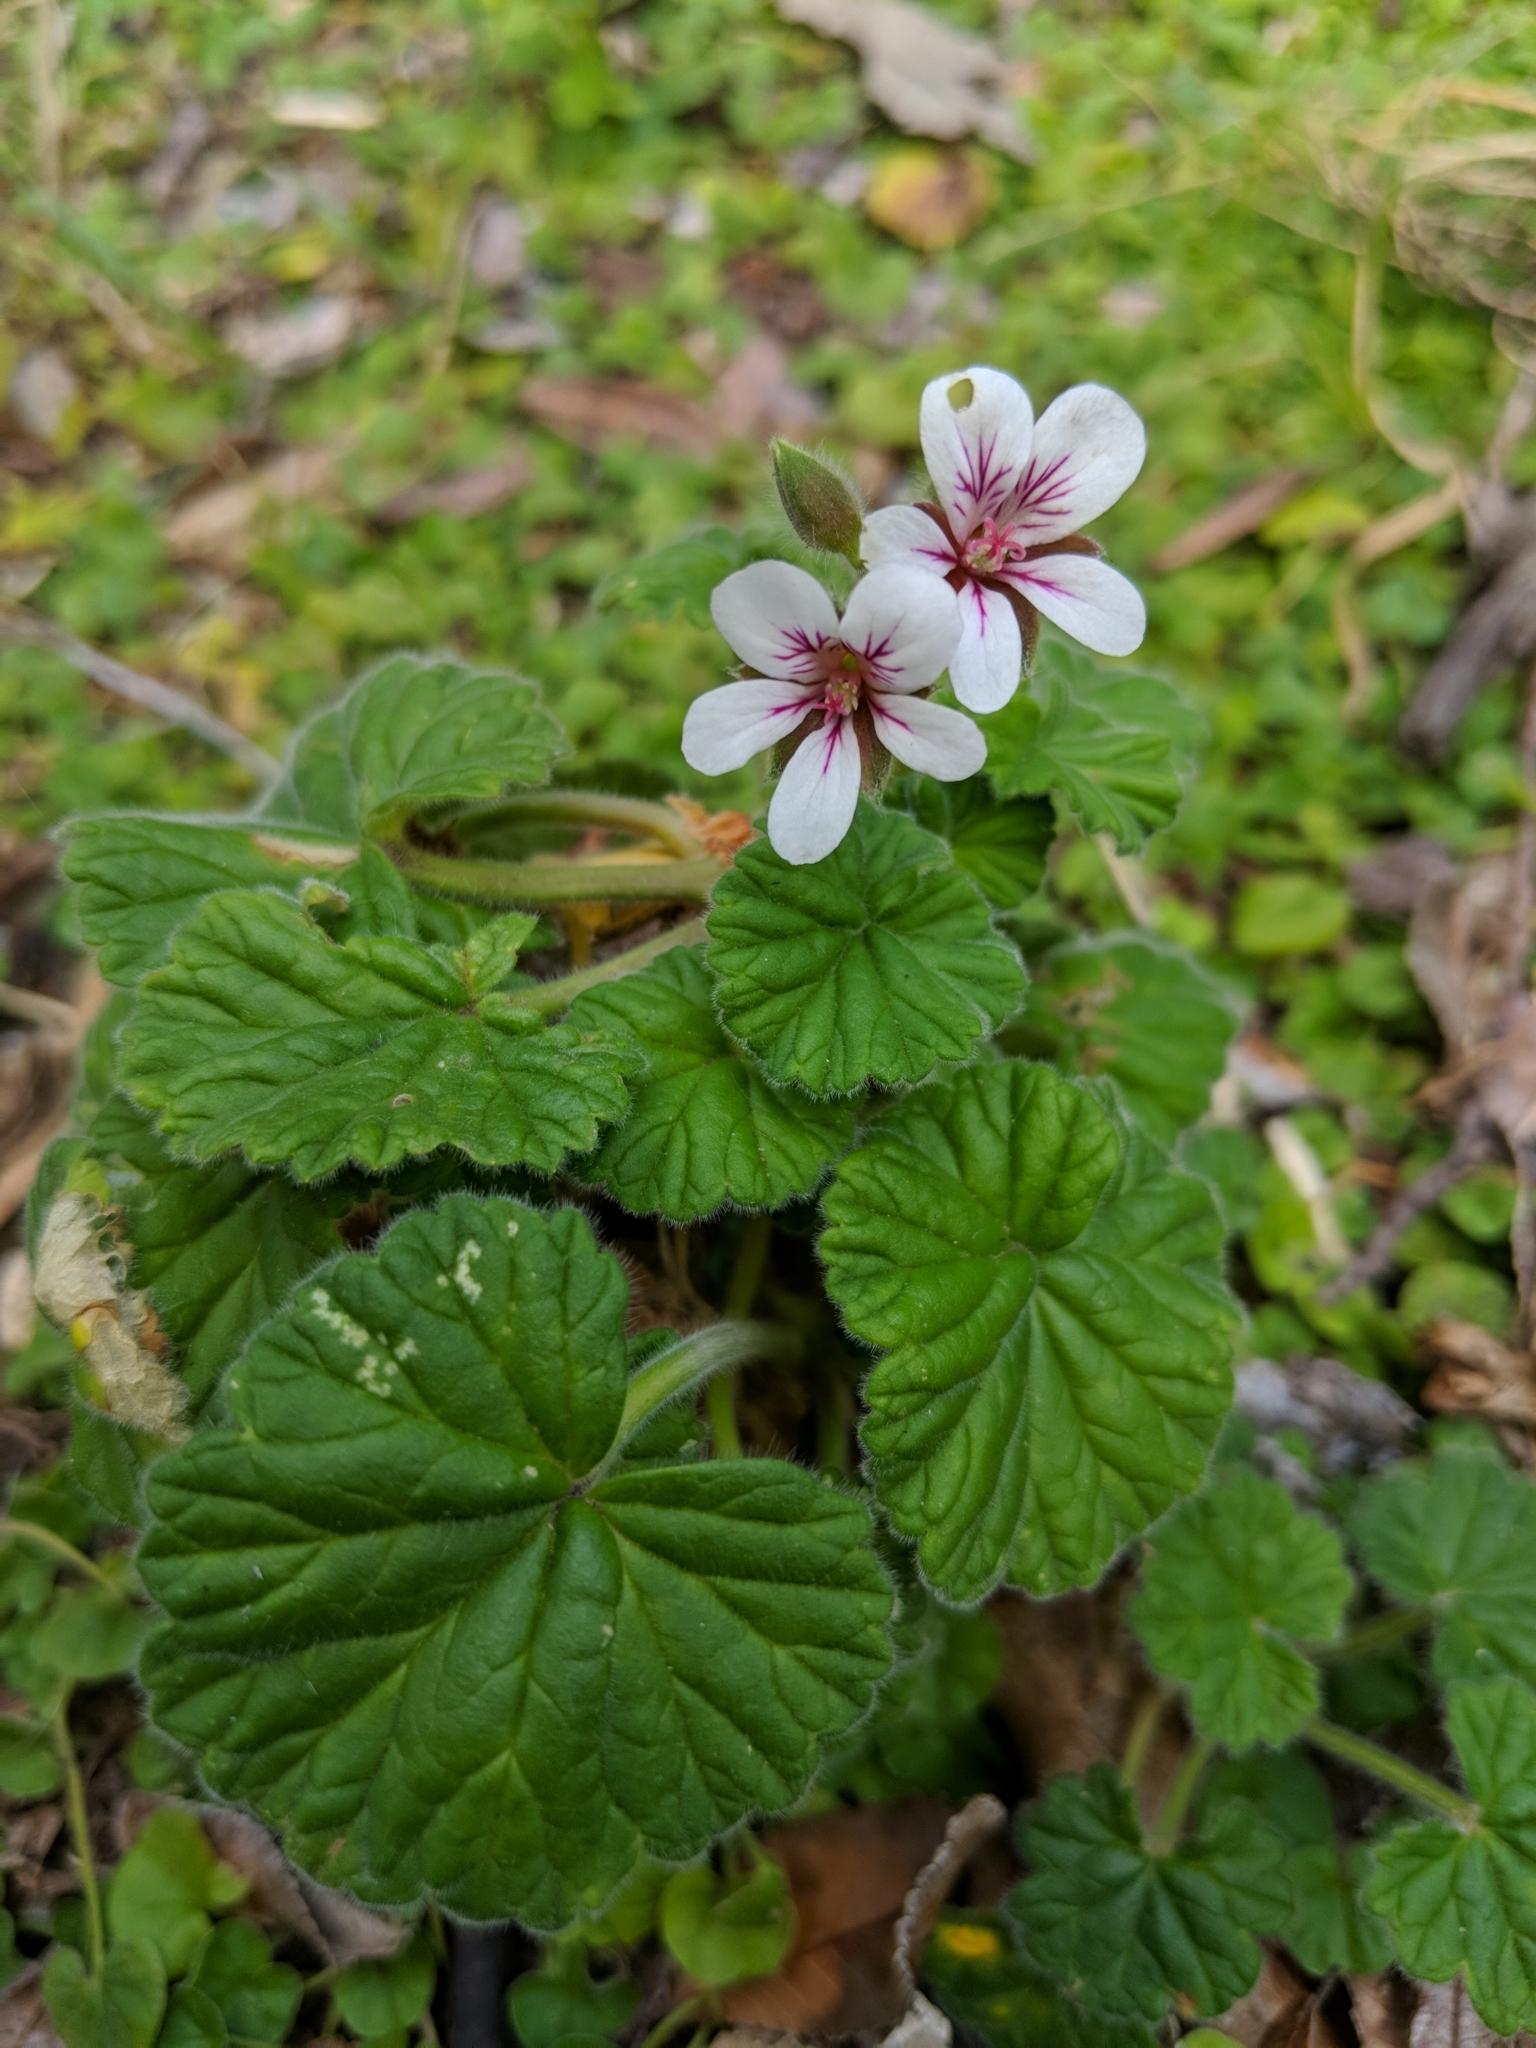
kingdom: Plantae
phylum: Tracheophyta
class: Magnoliopsida
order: Geraniales
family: Geraniaceae
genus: Pelargonium
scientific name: Pelargonium australe
